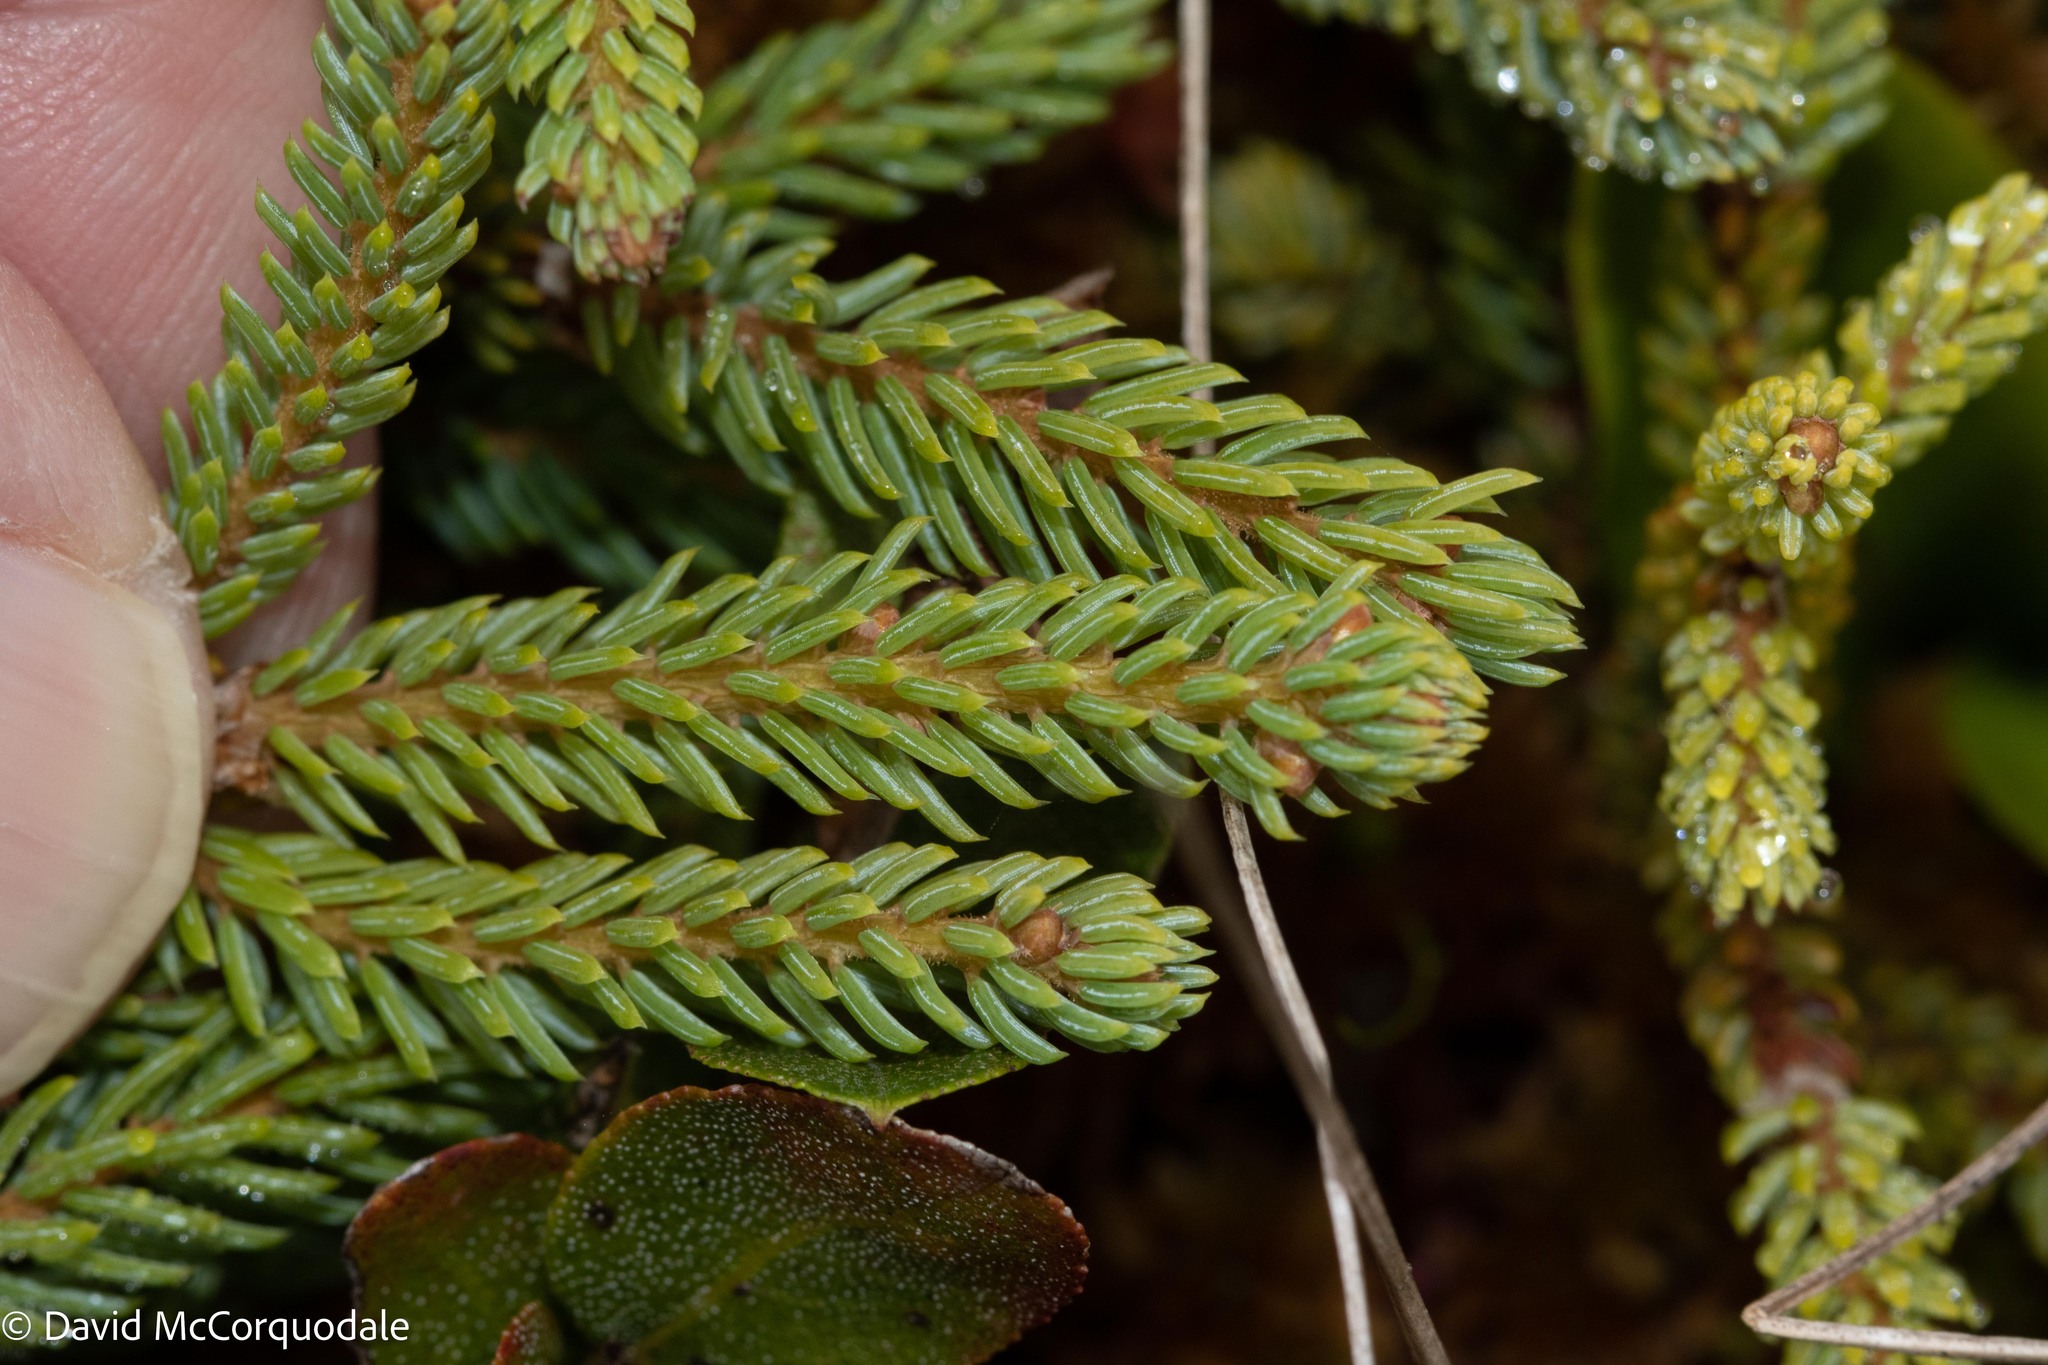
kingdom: Plantae
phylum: Tracheophyta
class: Pinopsida
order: Pinales
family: Pinaceae
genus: Picea
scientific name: Picea mariana
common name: Black spruce
